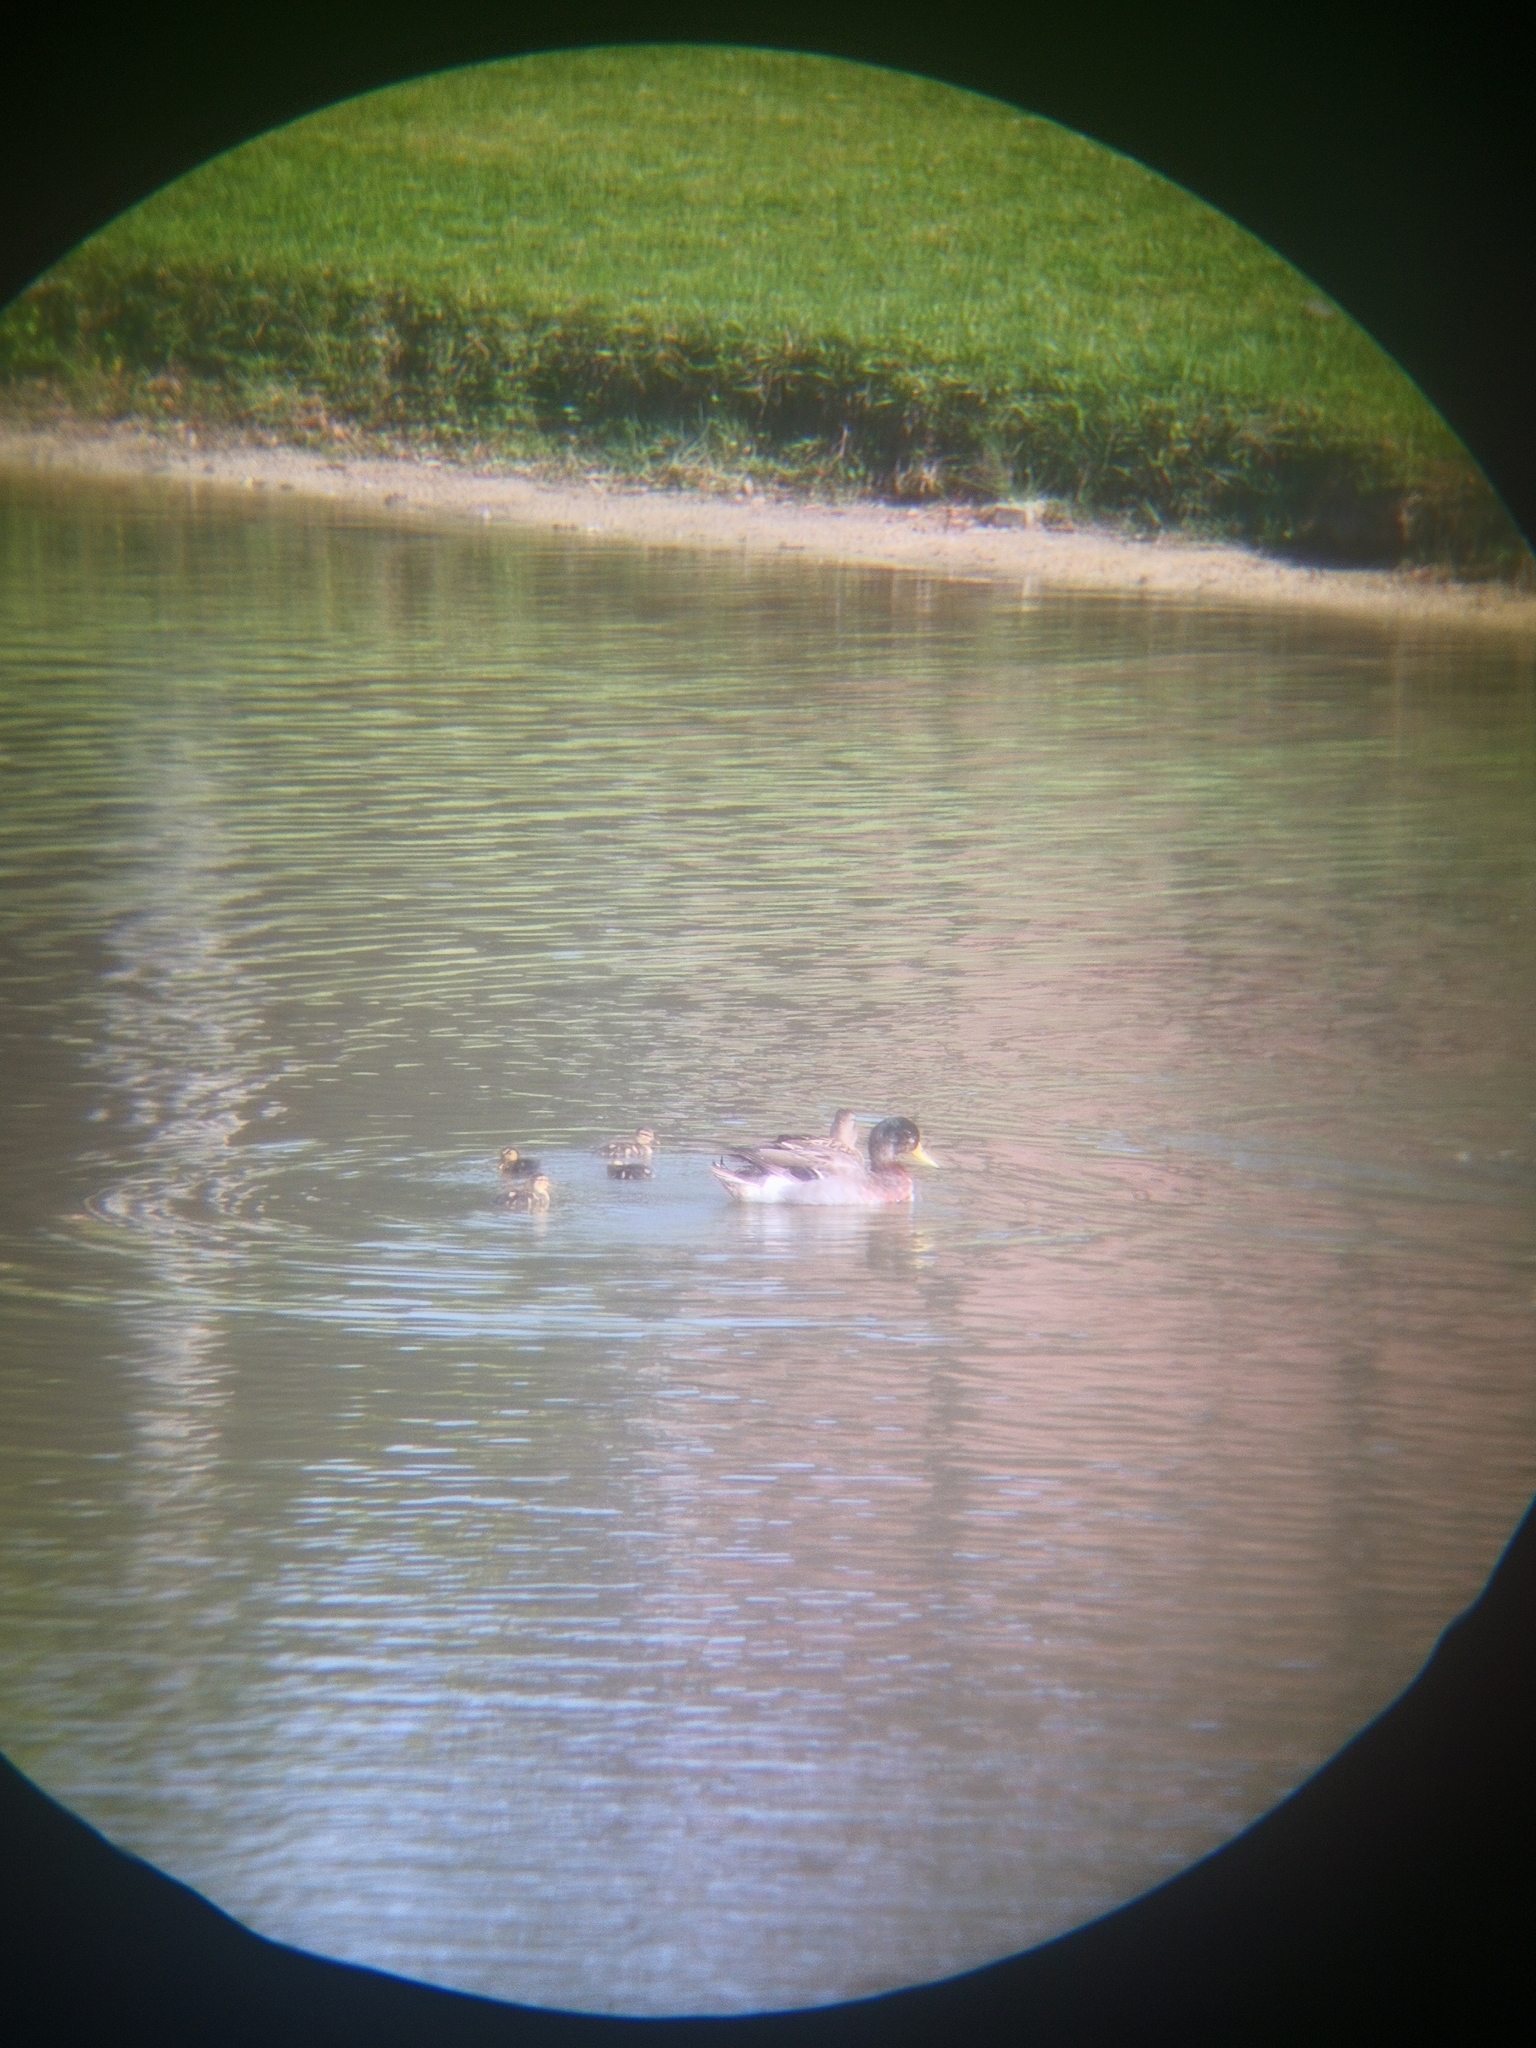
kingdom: Animalia
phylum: Chordata
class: Aves
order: Anseriformes
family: Anatidae
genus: Anas
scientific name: Anas platyrhynchos
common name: Mallard
